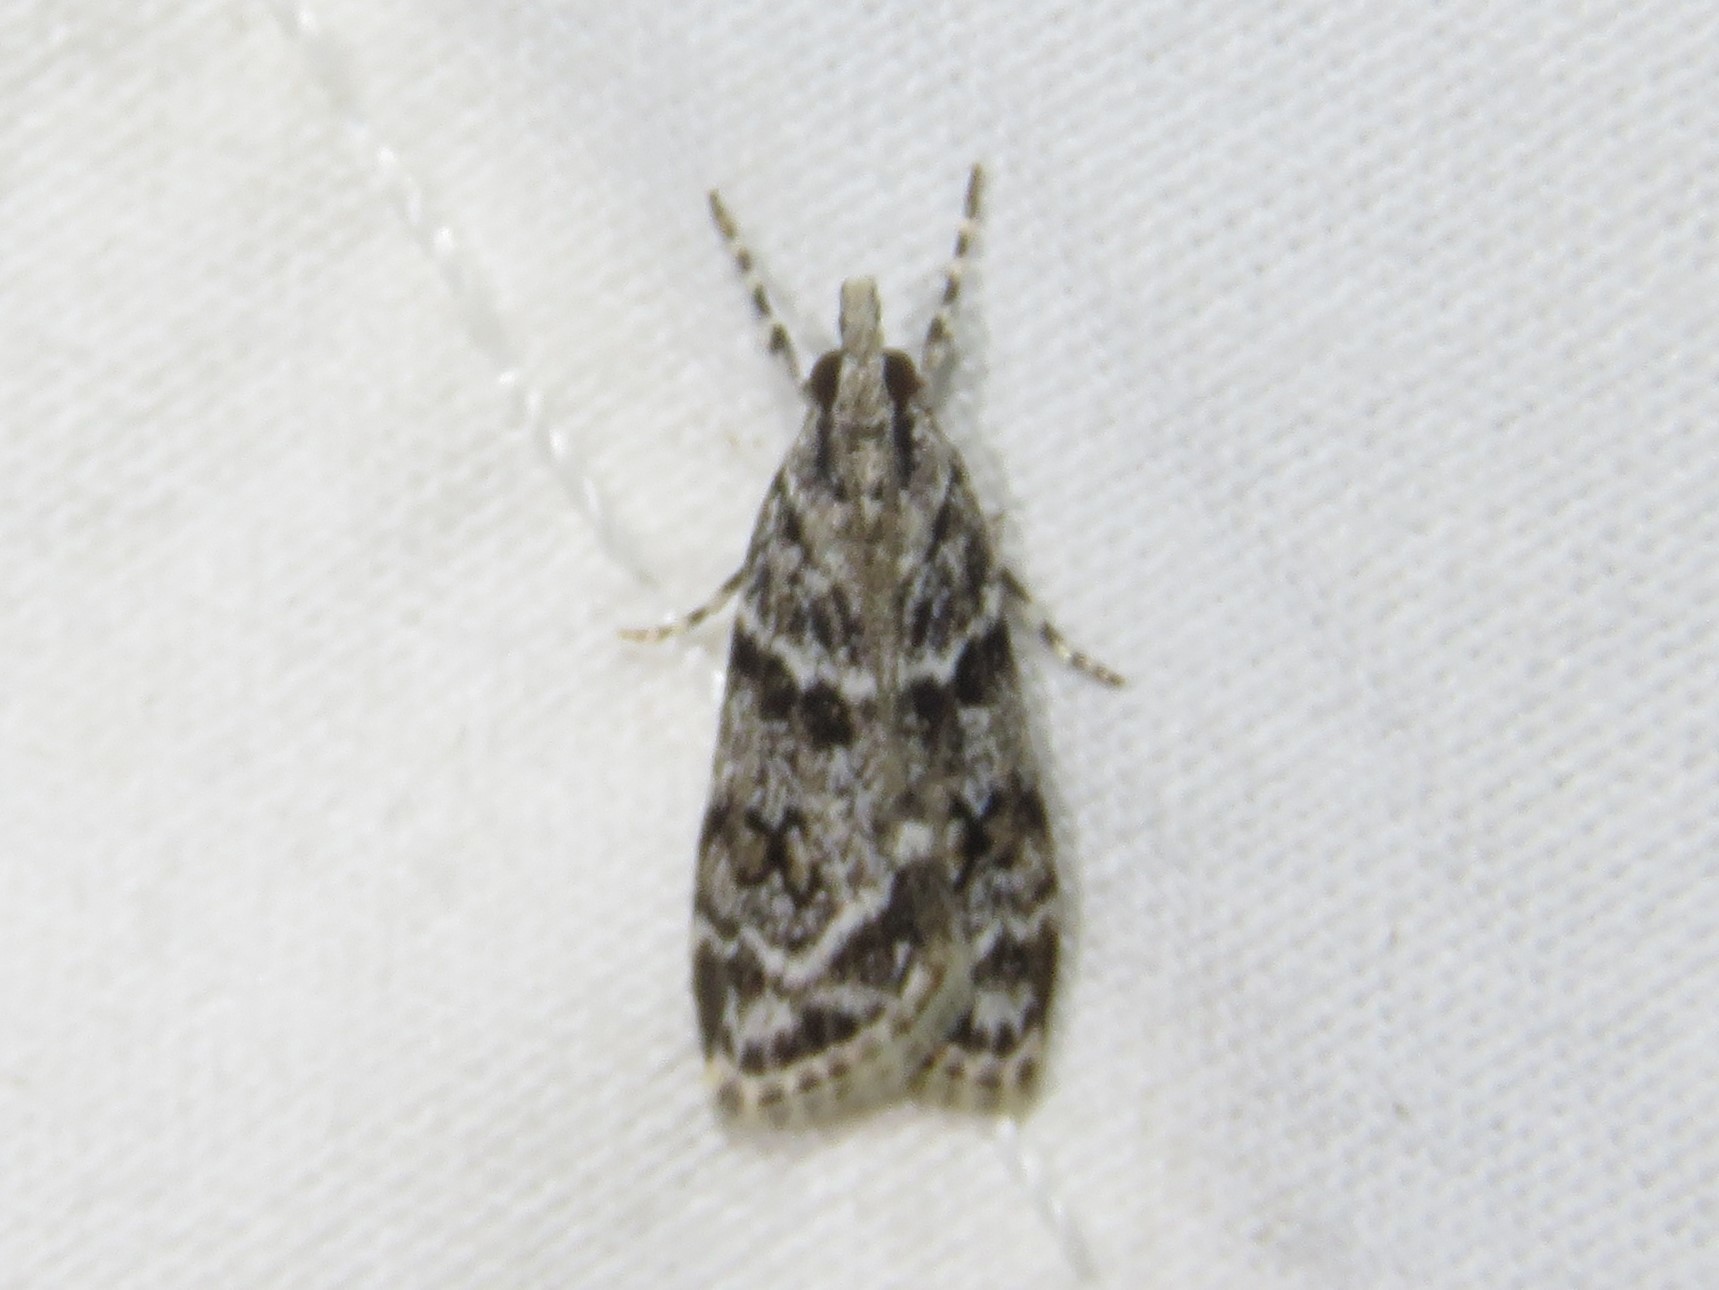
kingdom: Animalia
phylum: Arthropoda
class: Insecta
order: Lepidoptera
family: Crambidae
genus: Scoparia
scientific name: Scoparia biplagialis
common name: Double-striped scoparia moth
